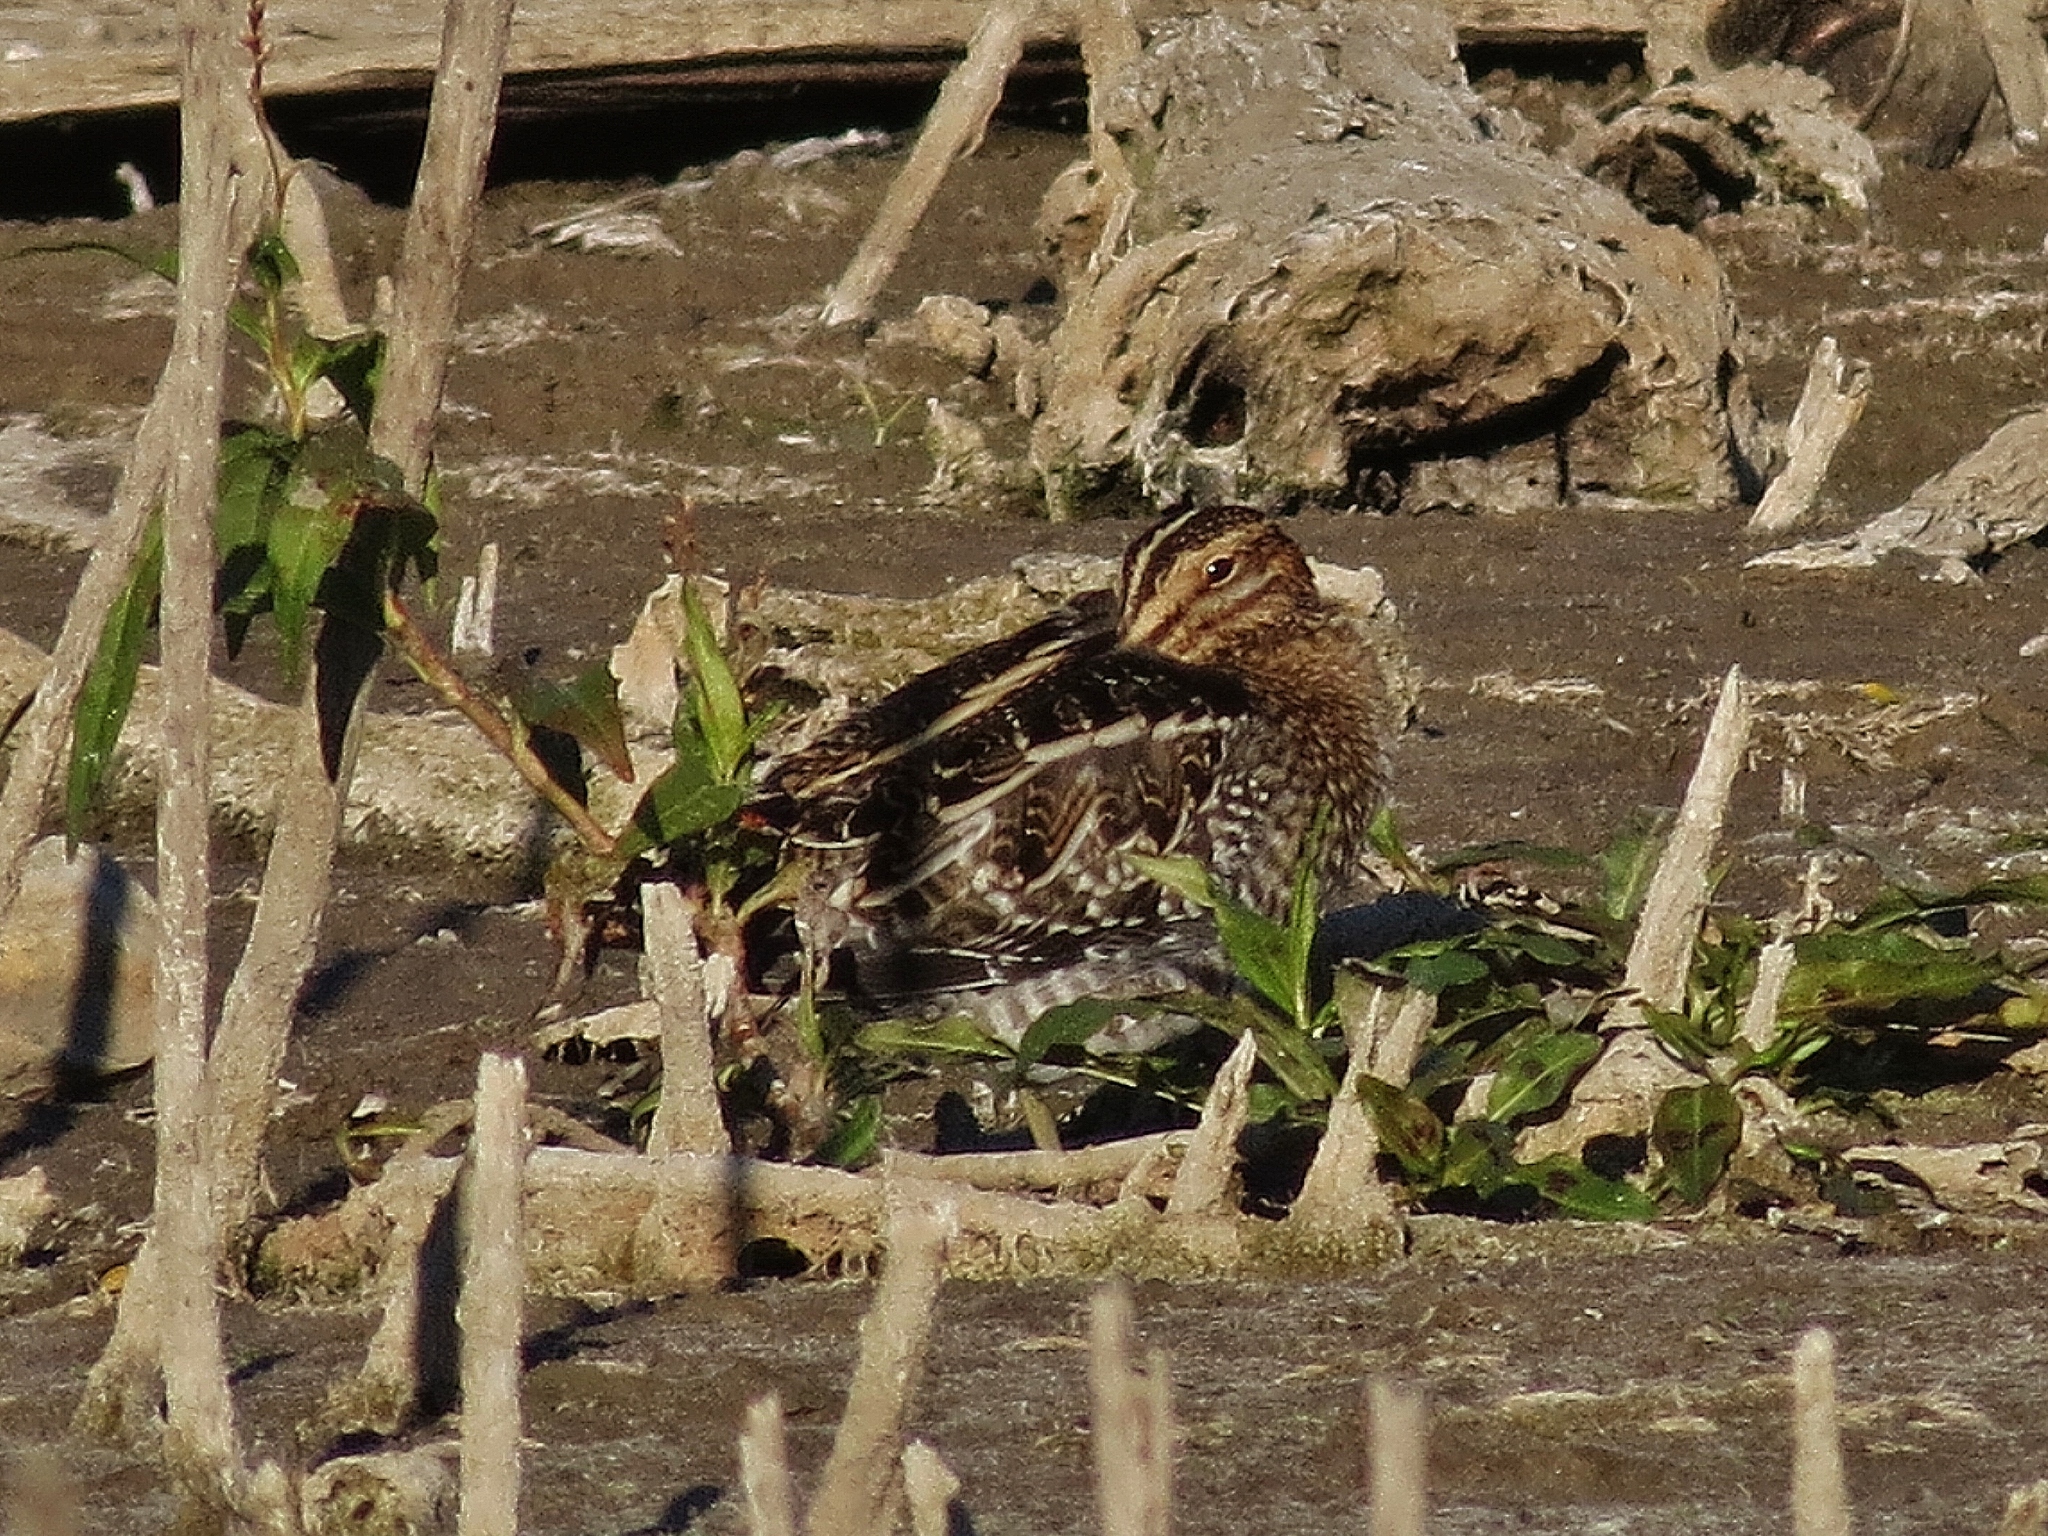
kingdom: Animalia
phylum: Chordata
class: Aves
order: Charadriiformes
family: Scolopacidae
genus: Gallinago
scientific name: Gallinago delicata
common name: Wilson's snipe
